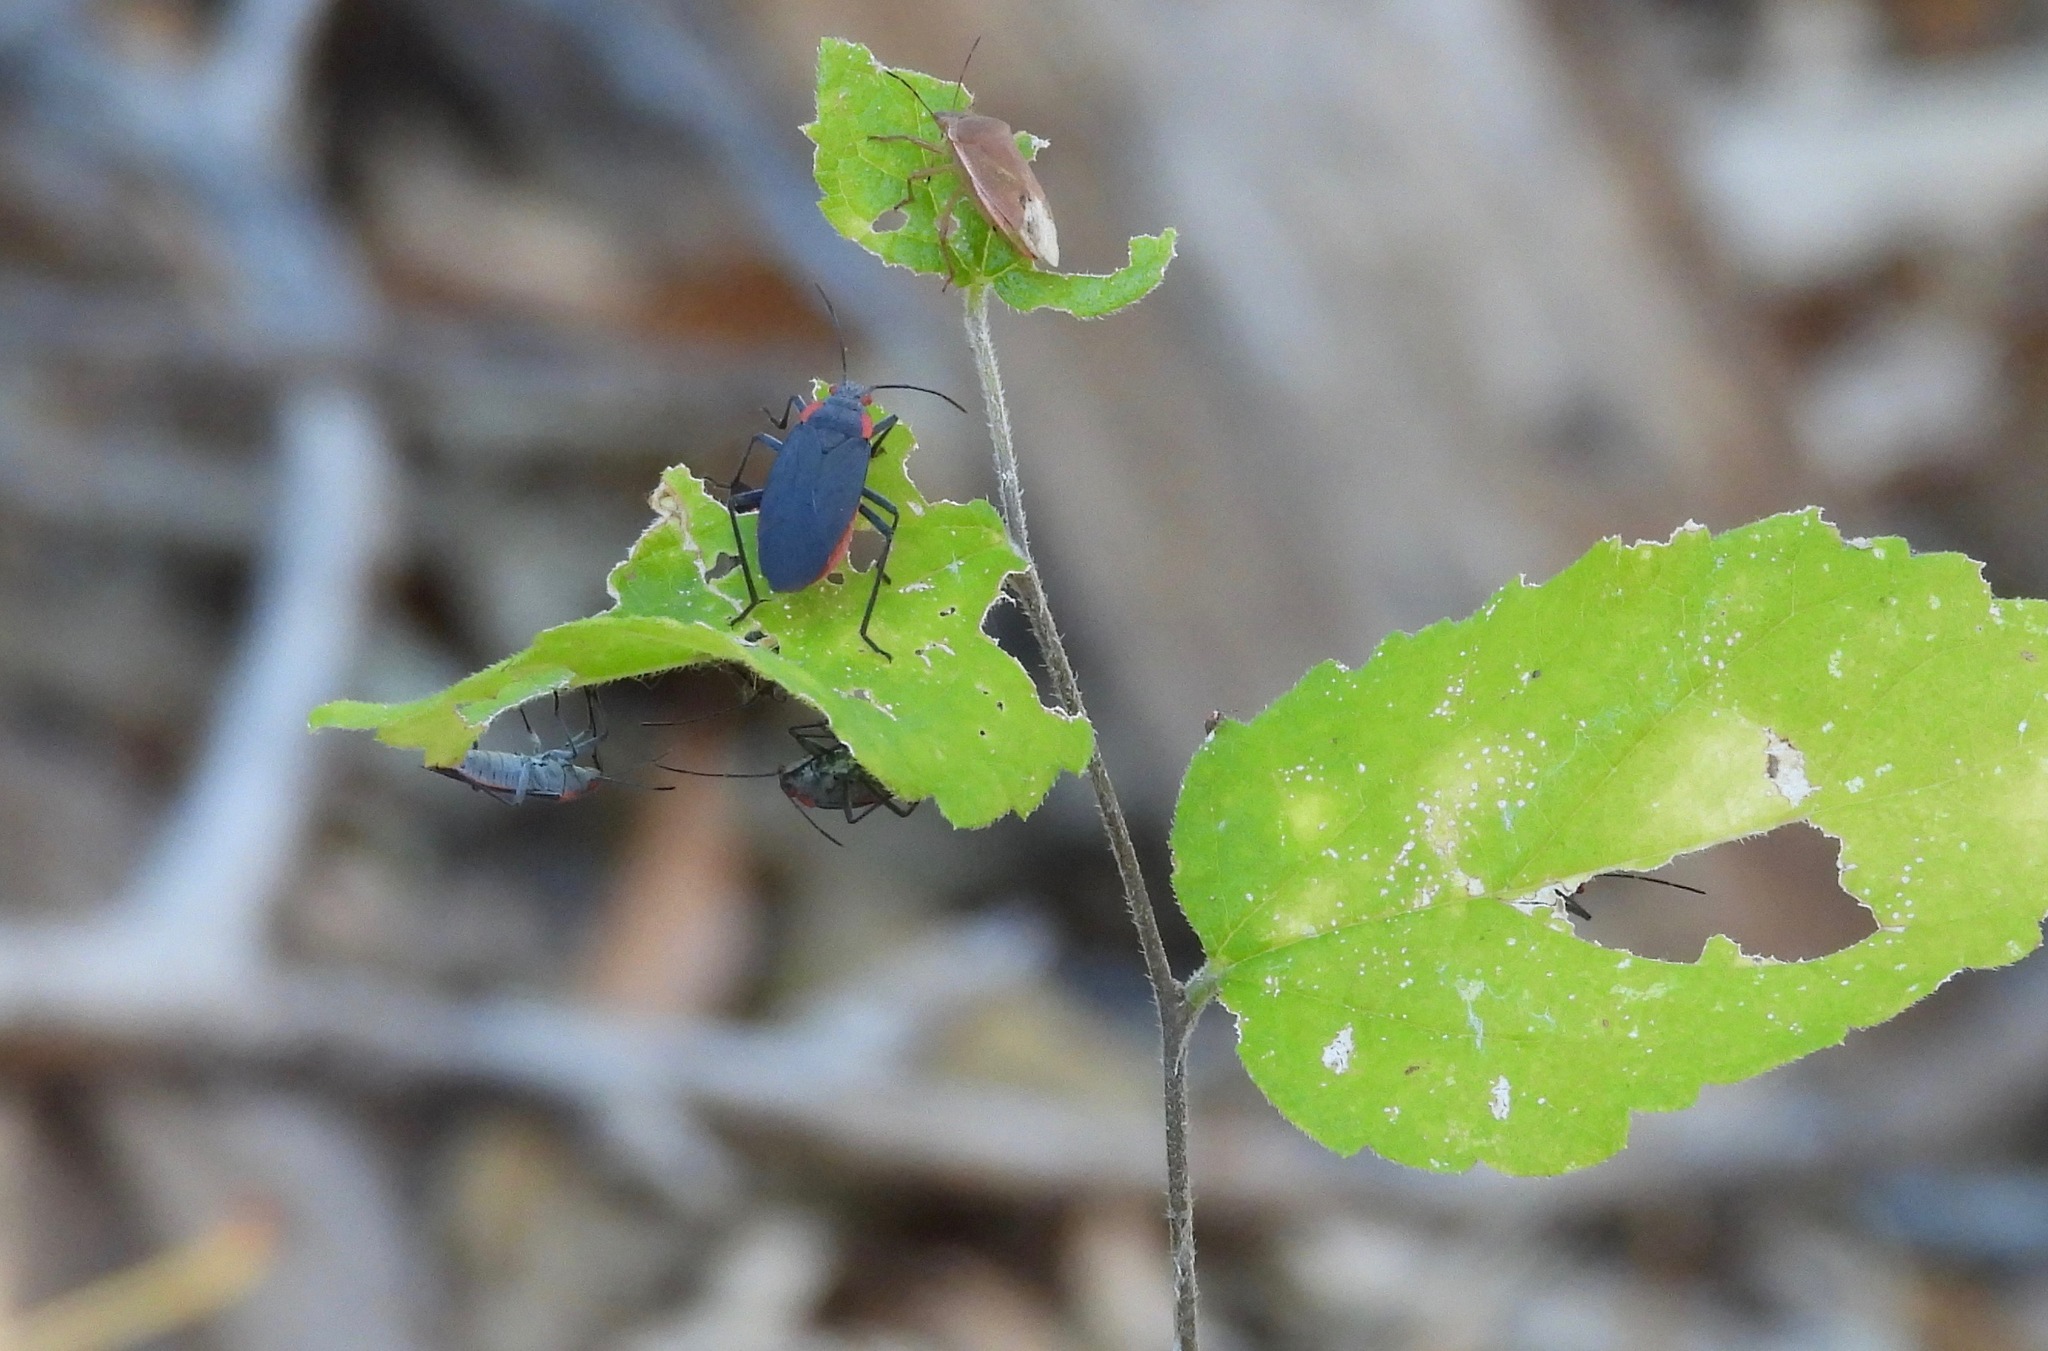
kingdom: Animalia
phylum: Arthropoda
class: Insecta
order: Hemiptera
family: Rhopalidae
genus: Jadera
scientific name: Jadera haematoloma
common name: Red-shouldered bug
